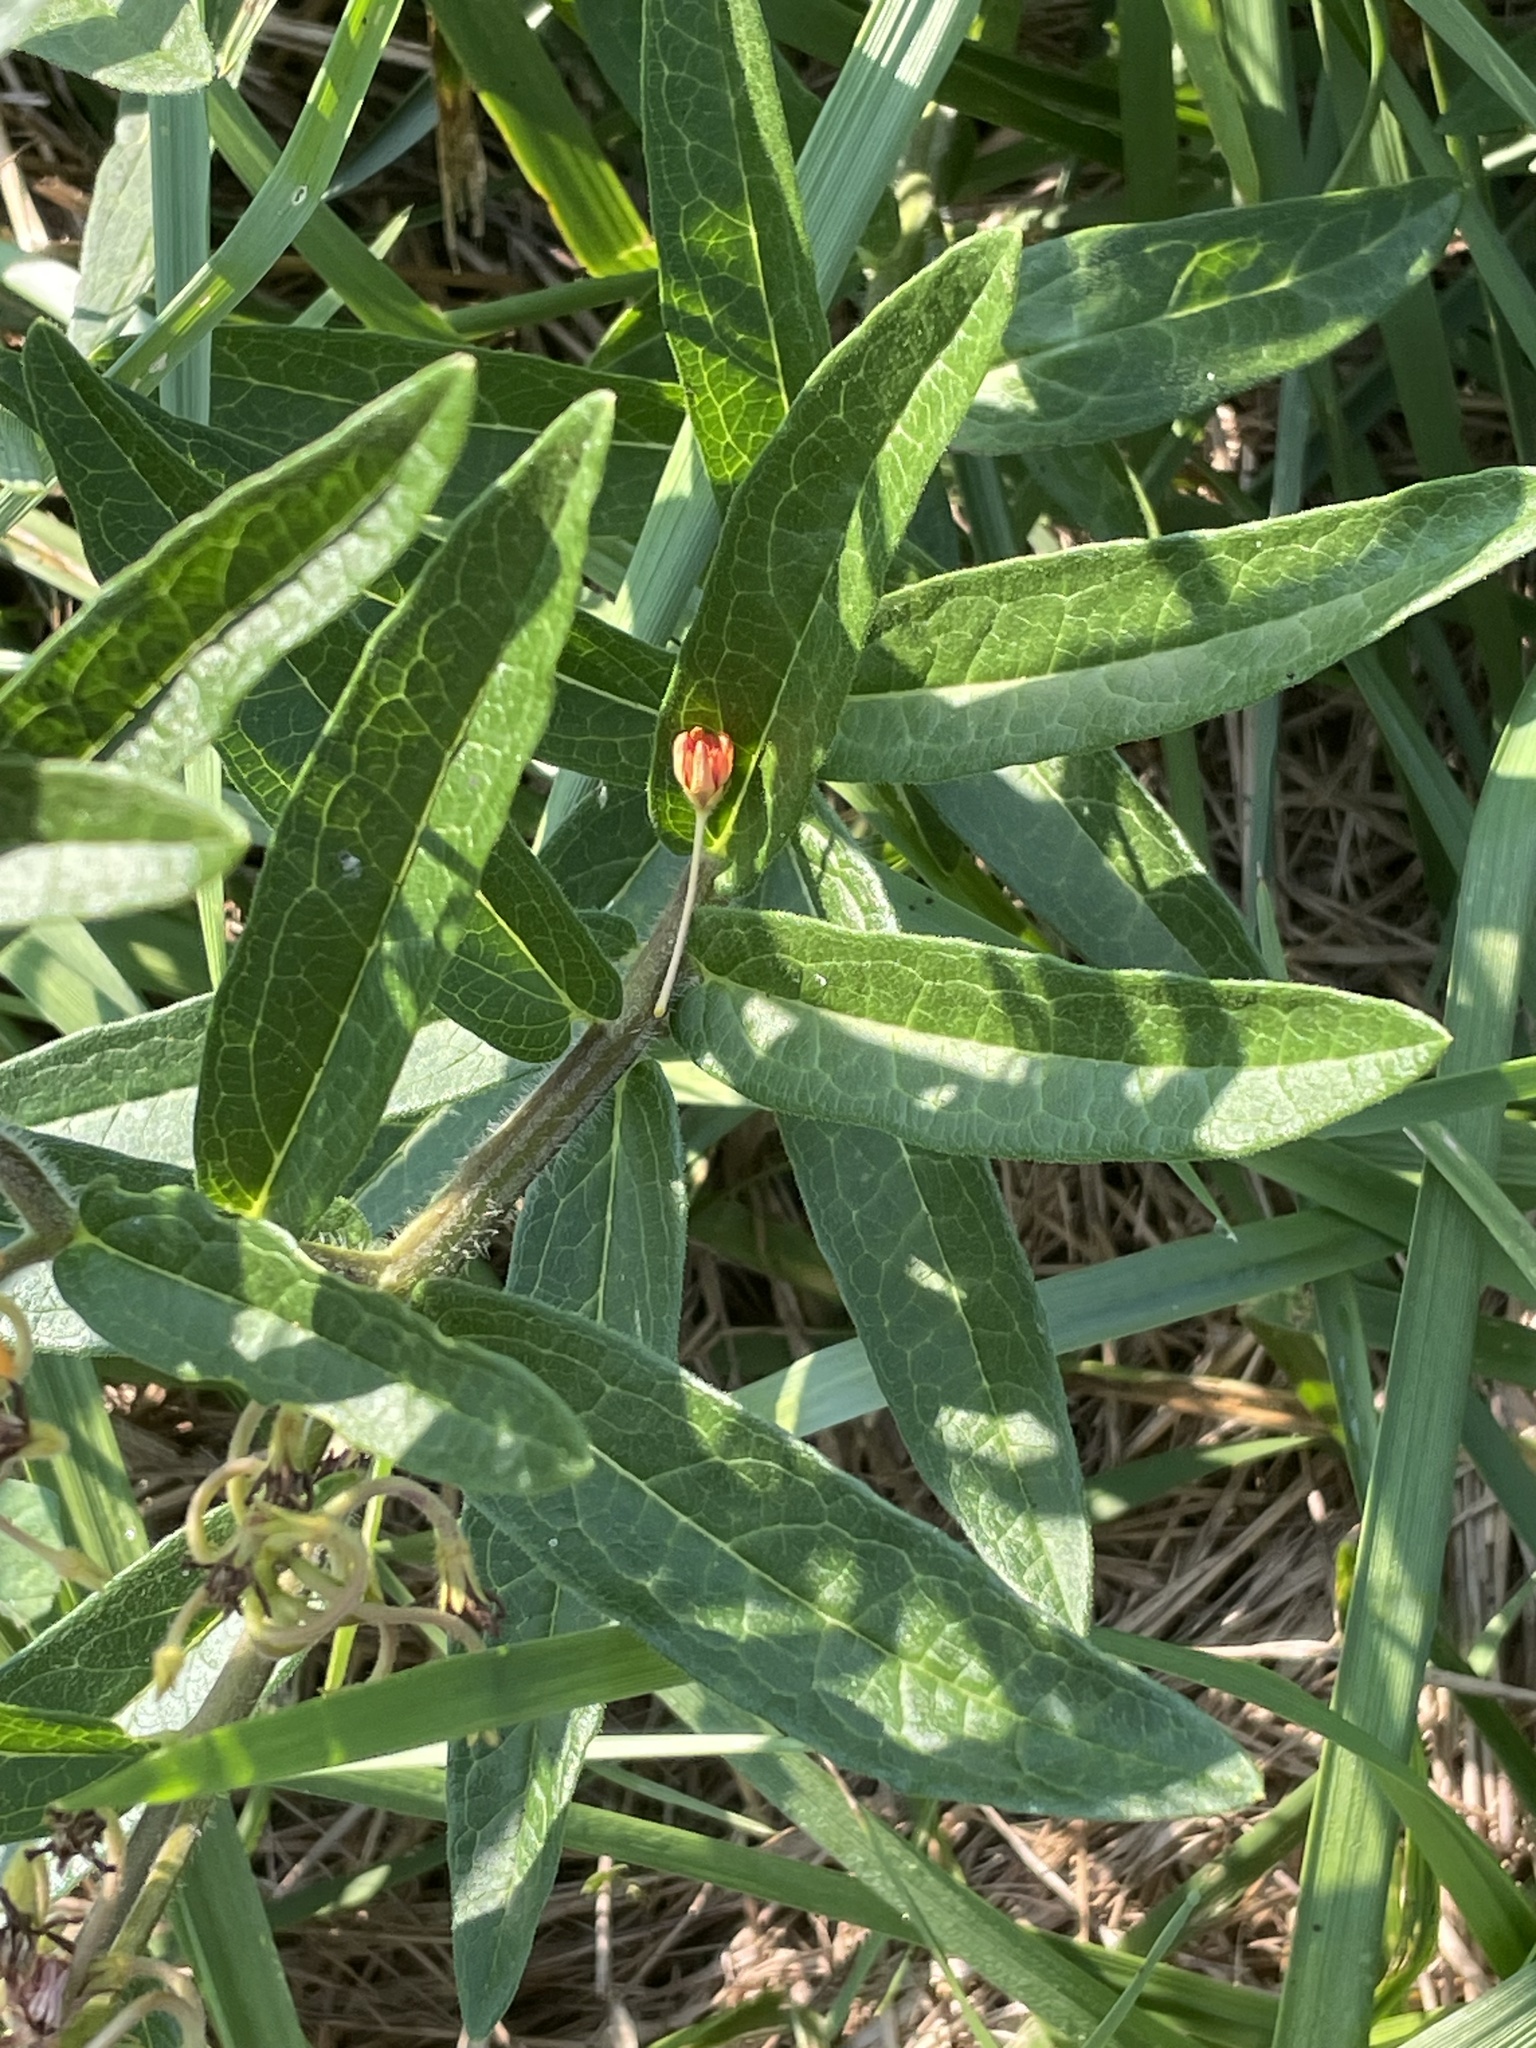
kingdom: Plantae
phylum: Tracheophyta
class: Magnoliopsida
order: Gentianales
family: Apocynaceae
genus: Asclepias
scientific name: Asclepias tuberosa
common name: Butterfly milkweed
